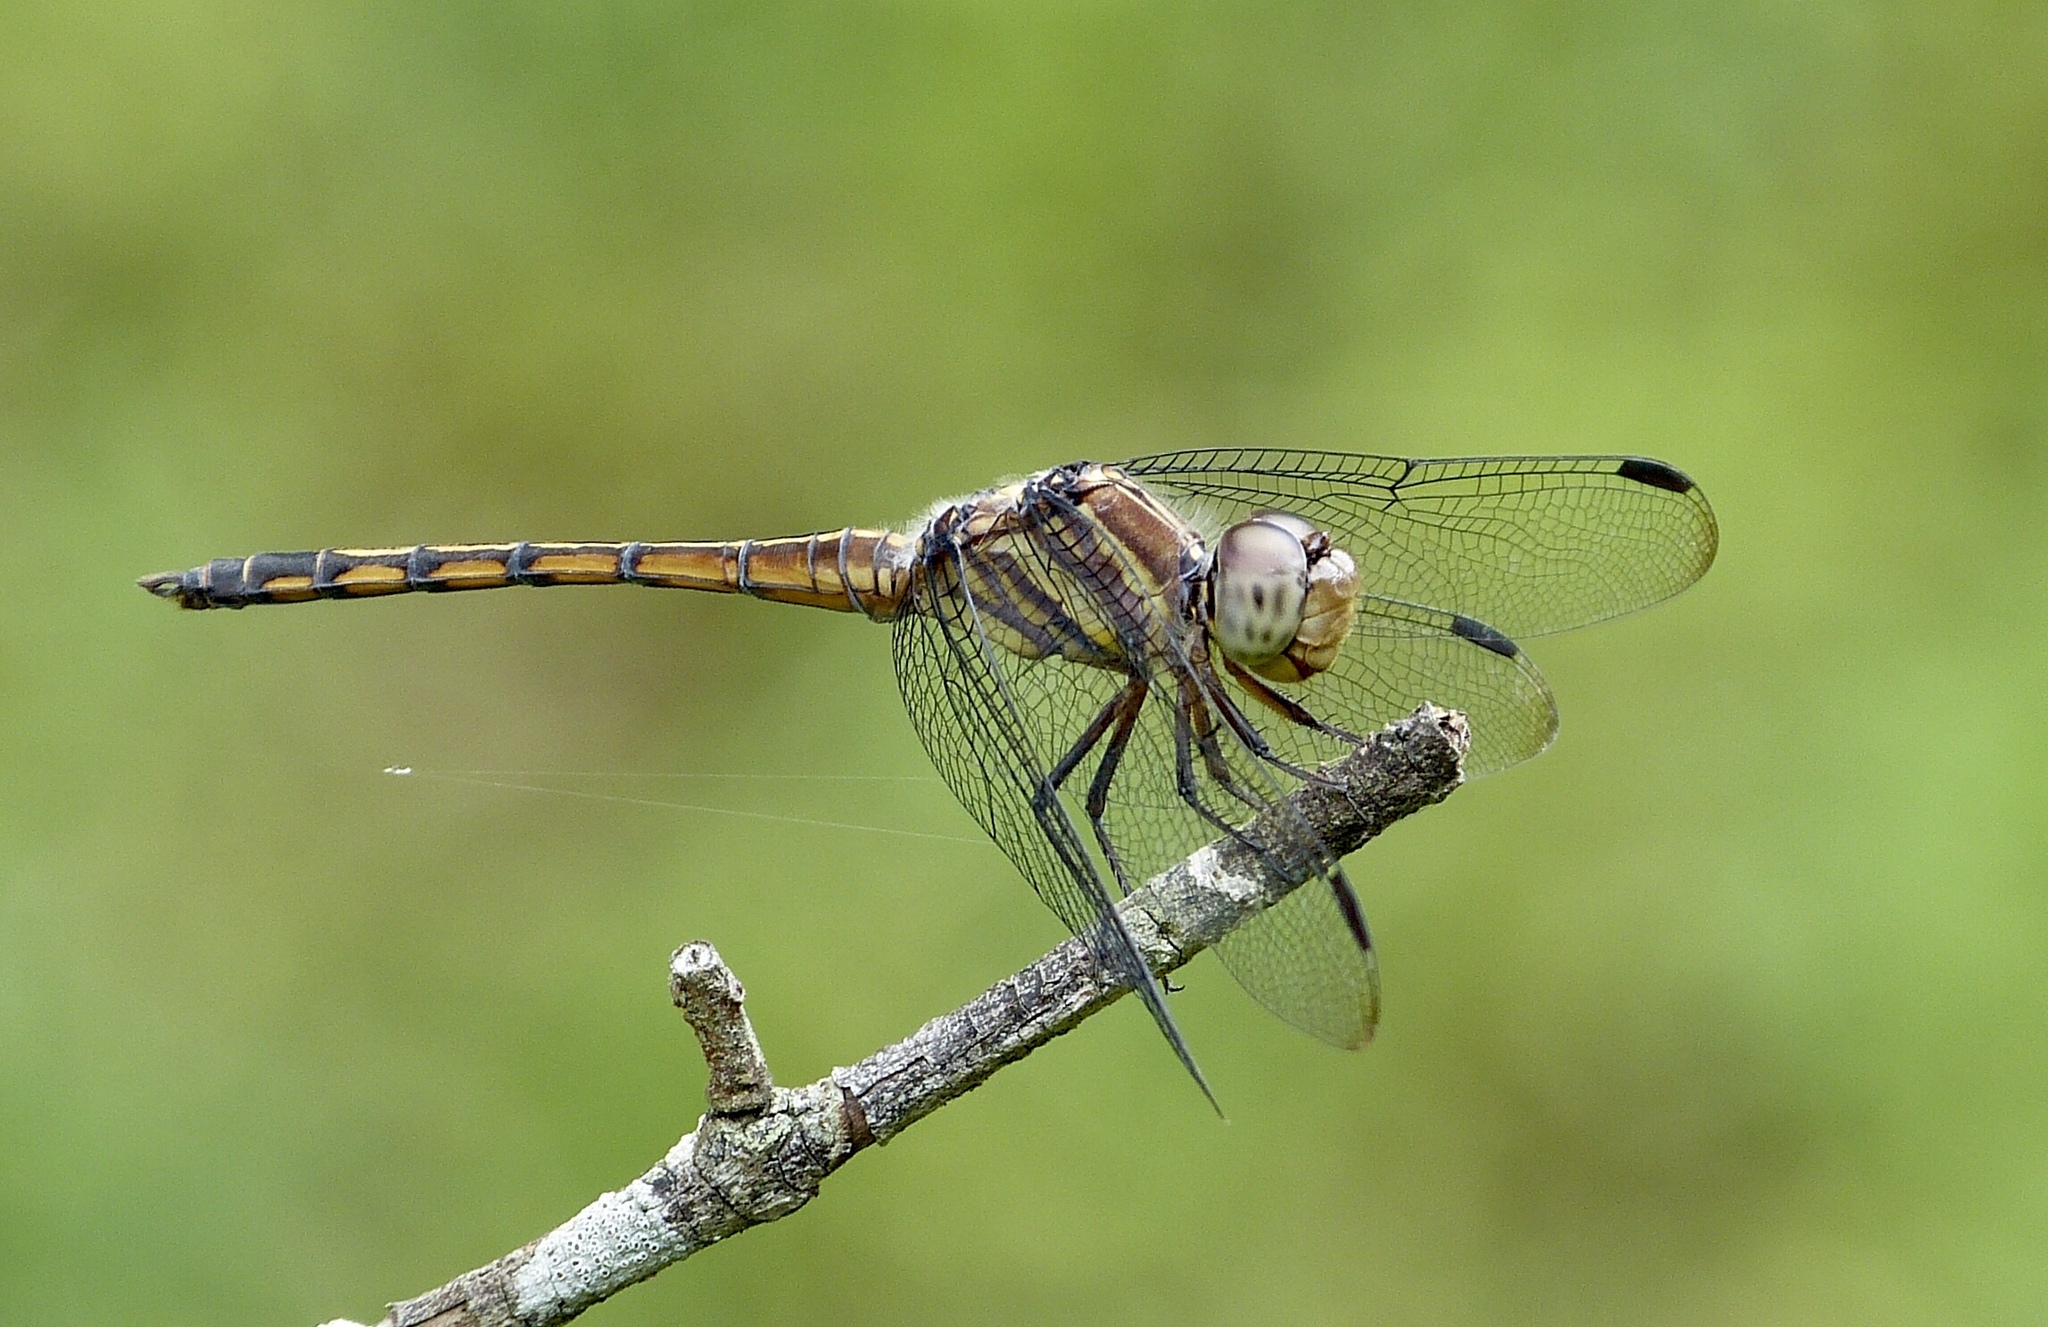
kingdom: Animalia
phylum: Arthropoda
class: Insecta
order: Odonata
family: Libellulidae
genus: Potamarcha
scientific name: Potamarcha congener
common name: Blue chaser
